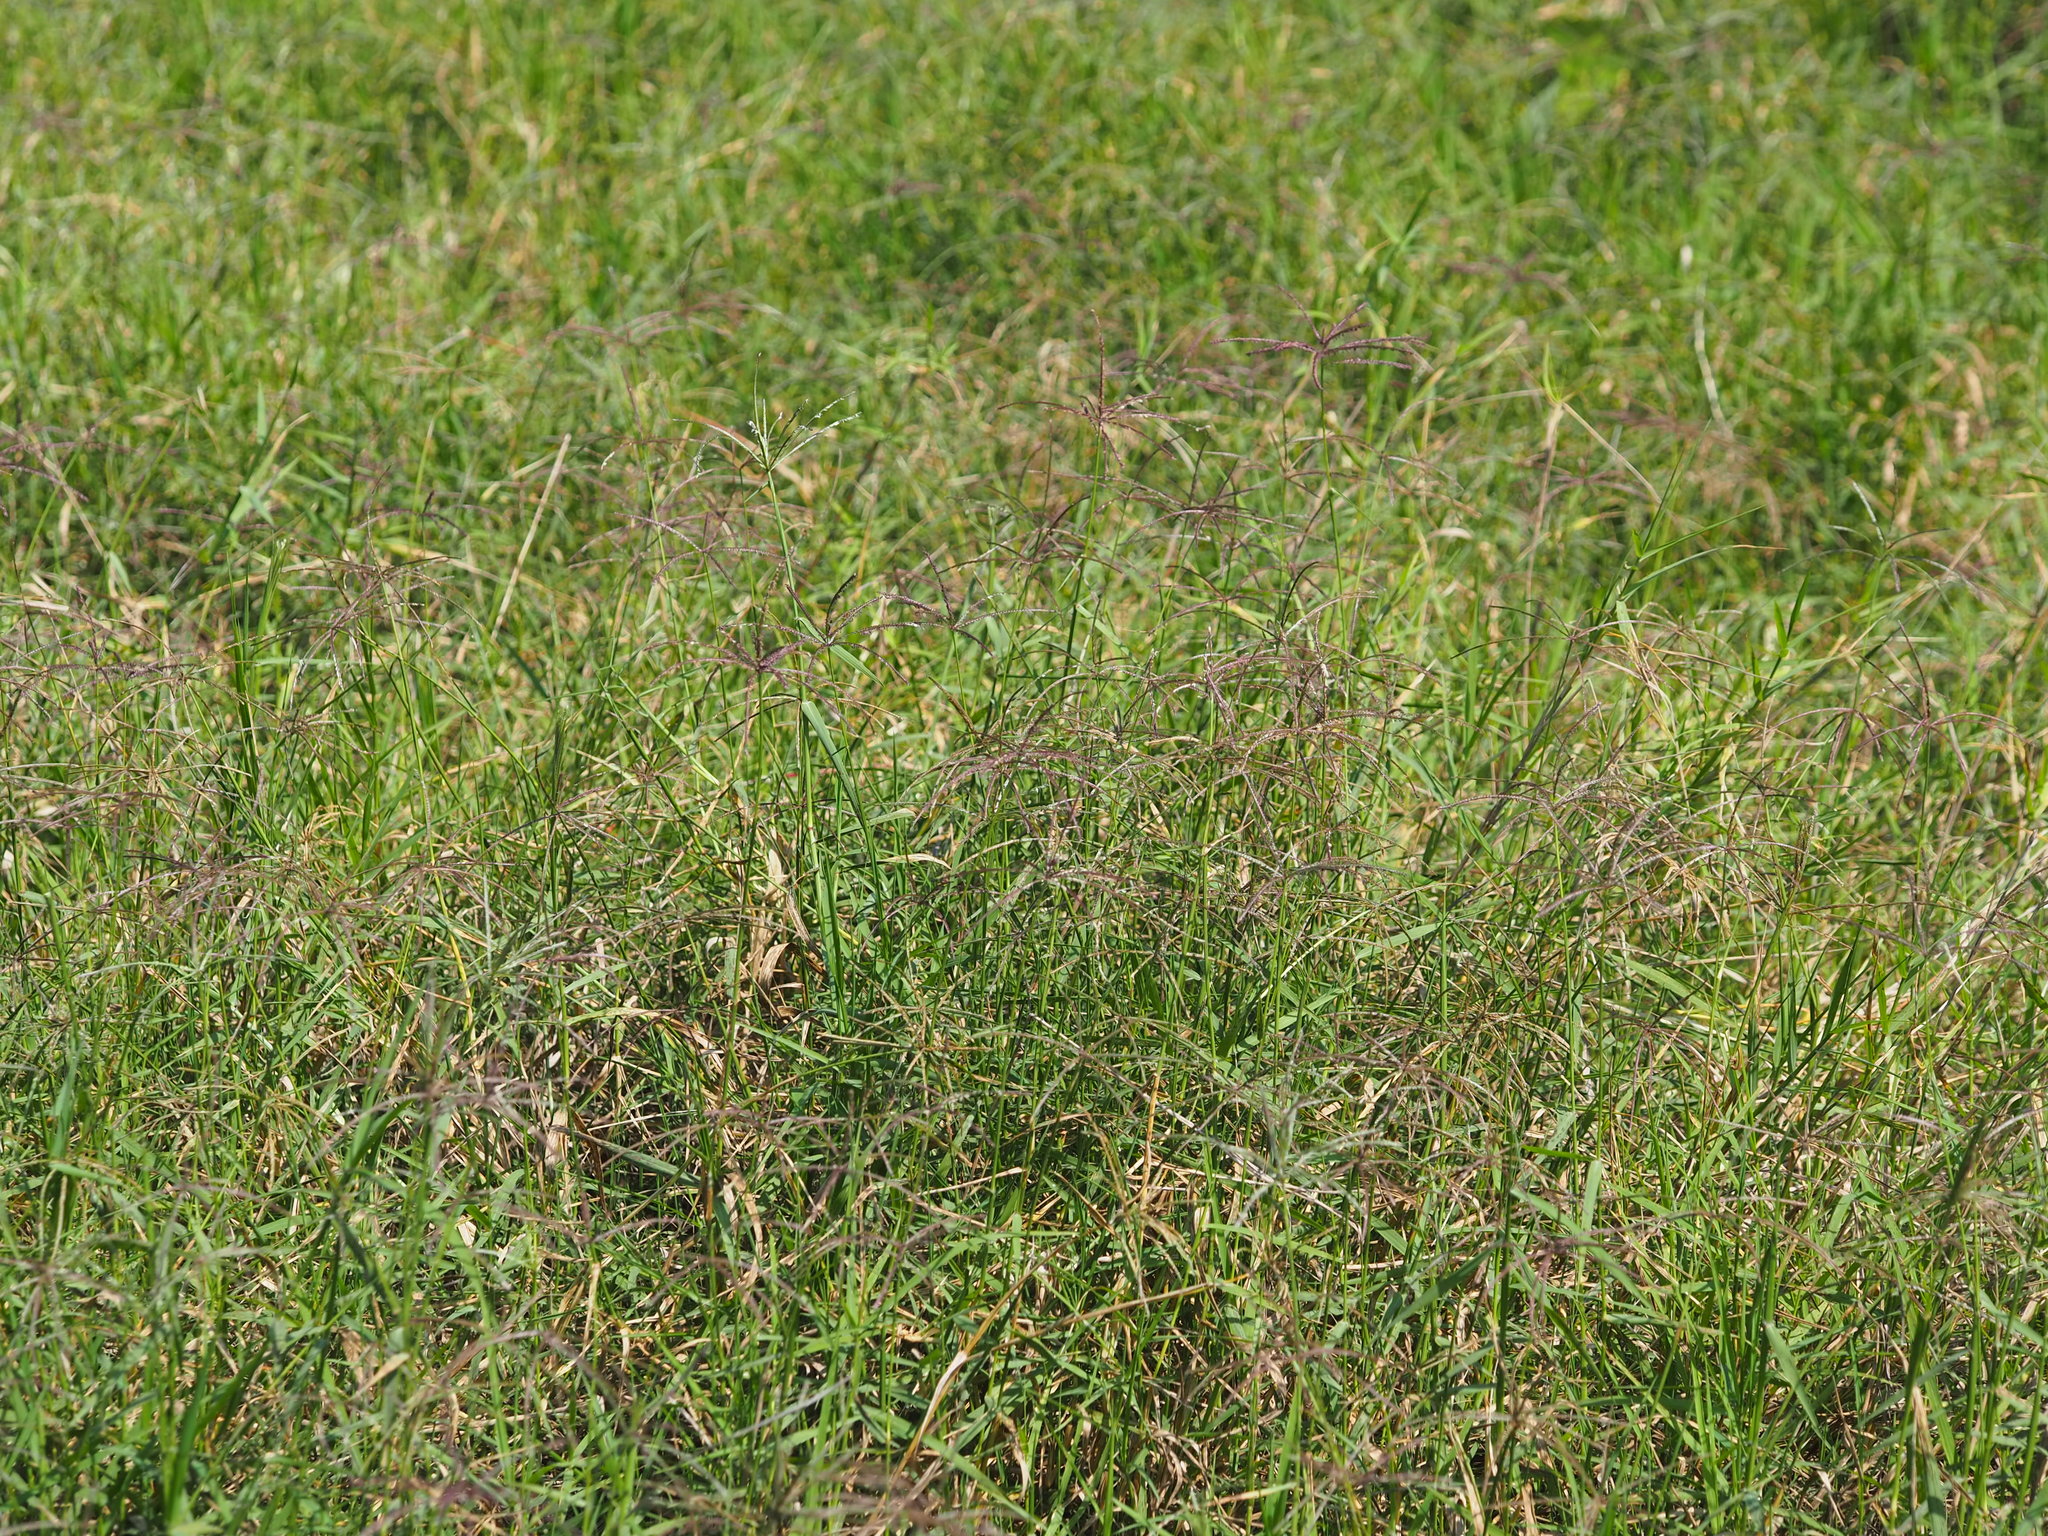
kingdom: Plantae
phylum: Tracheophyta
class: Liliopsida
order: Poales
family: Poaceae
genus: Cynodon
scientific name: Cynodon nlemfuensis
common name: African bermudagrass
